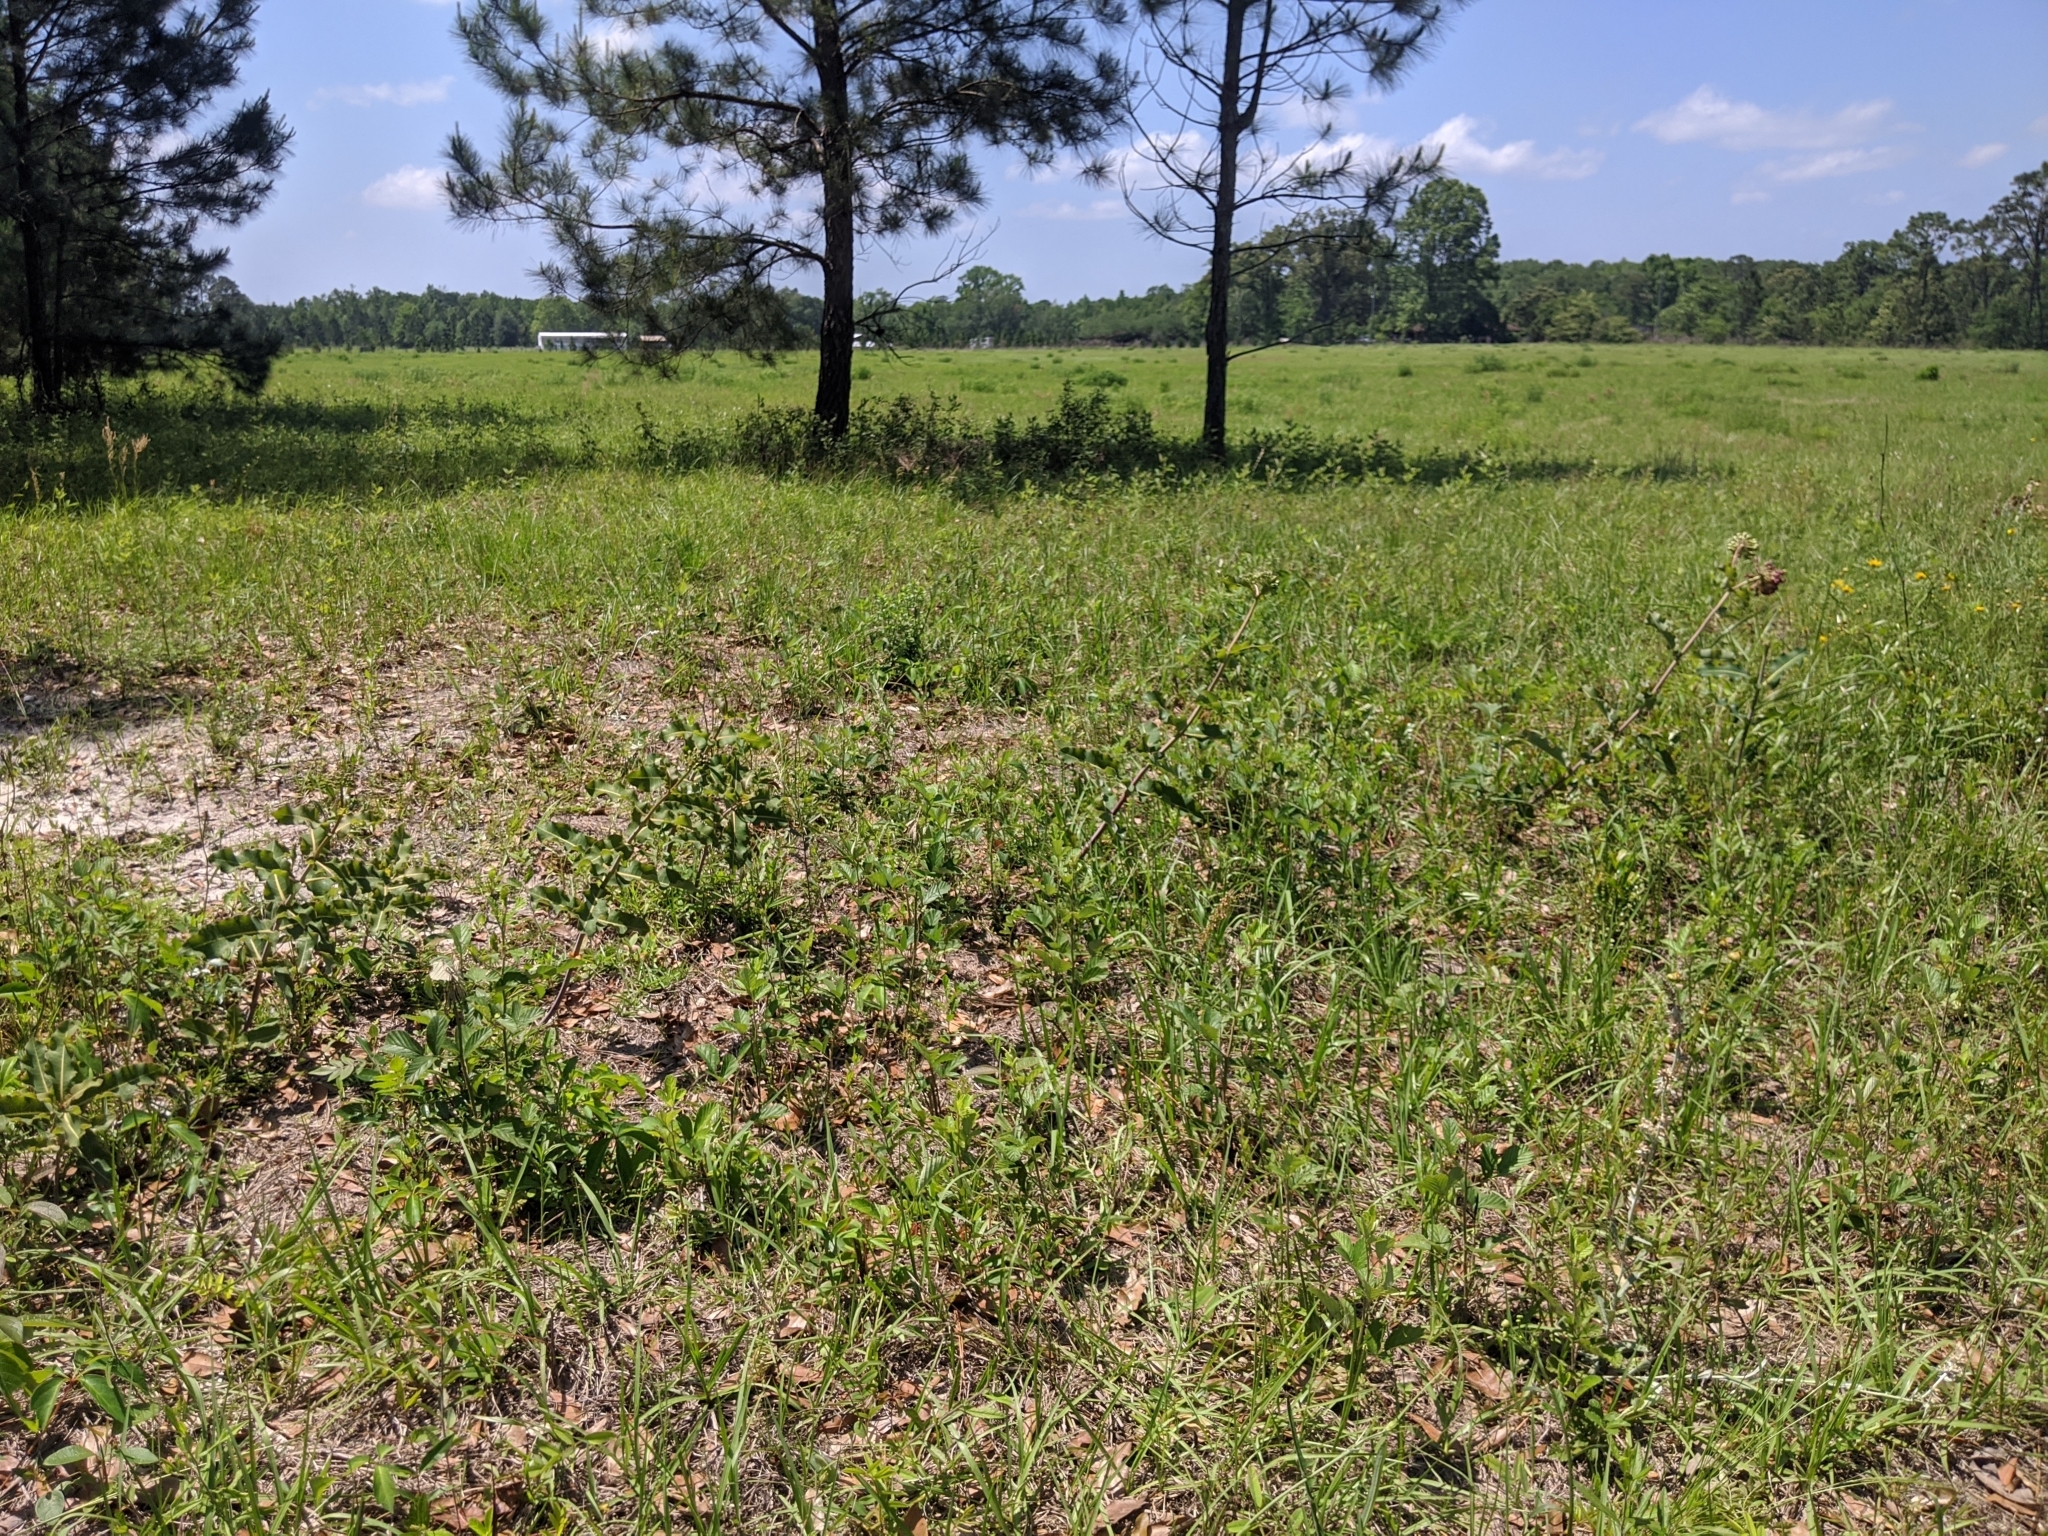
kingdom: Plantae
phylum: Tracheophyta
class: Magnoliopsida
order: Gentianales
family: Apocynaceae
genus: Asclepias
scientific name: Asclepias amplexicaulis
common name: Blunt-leaf milkweed
